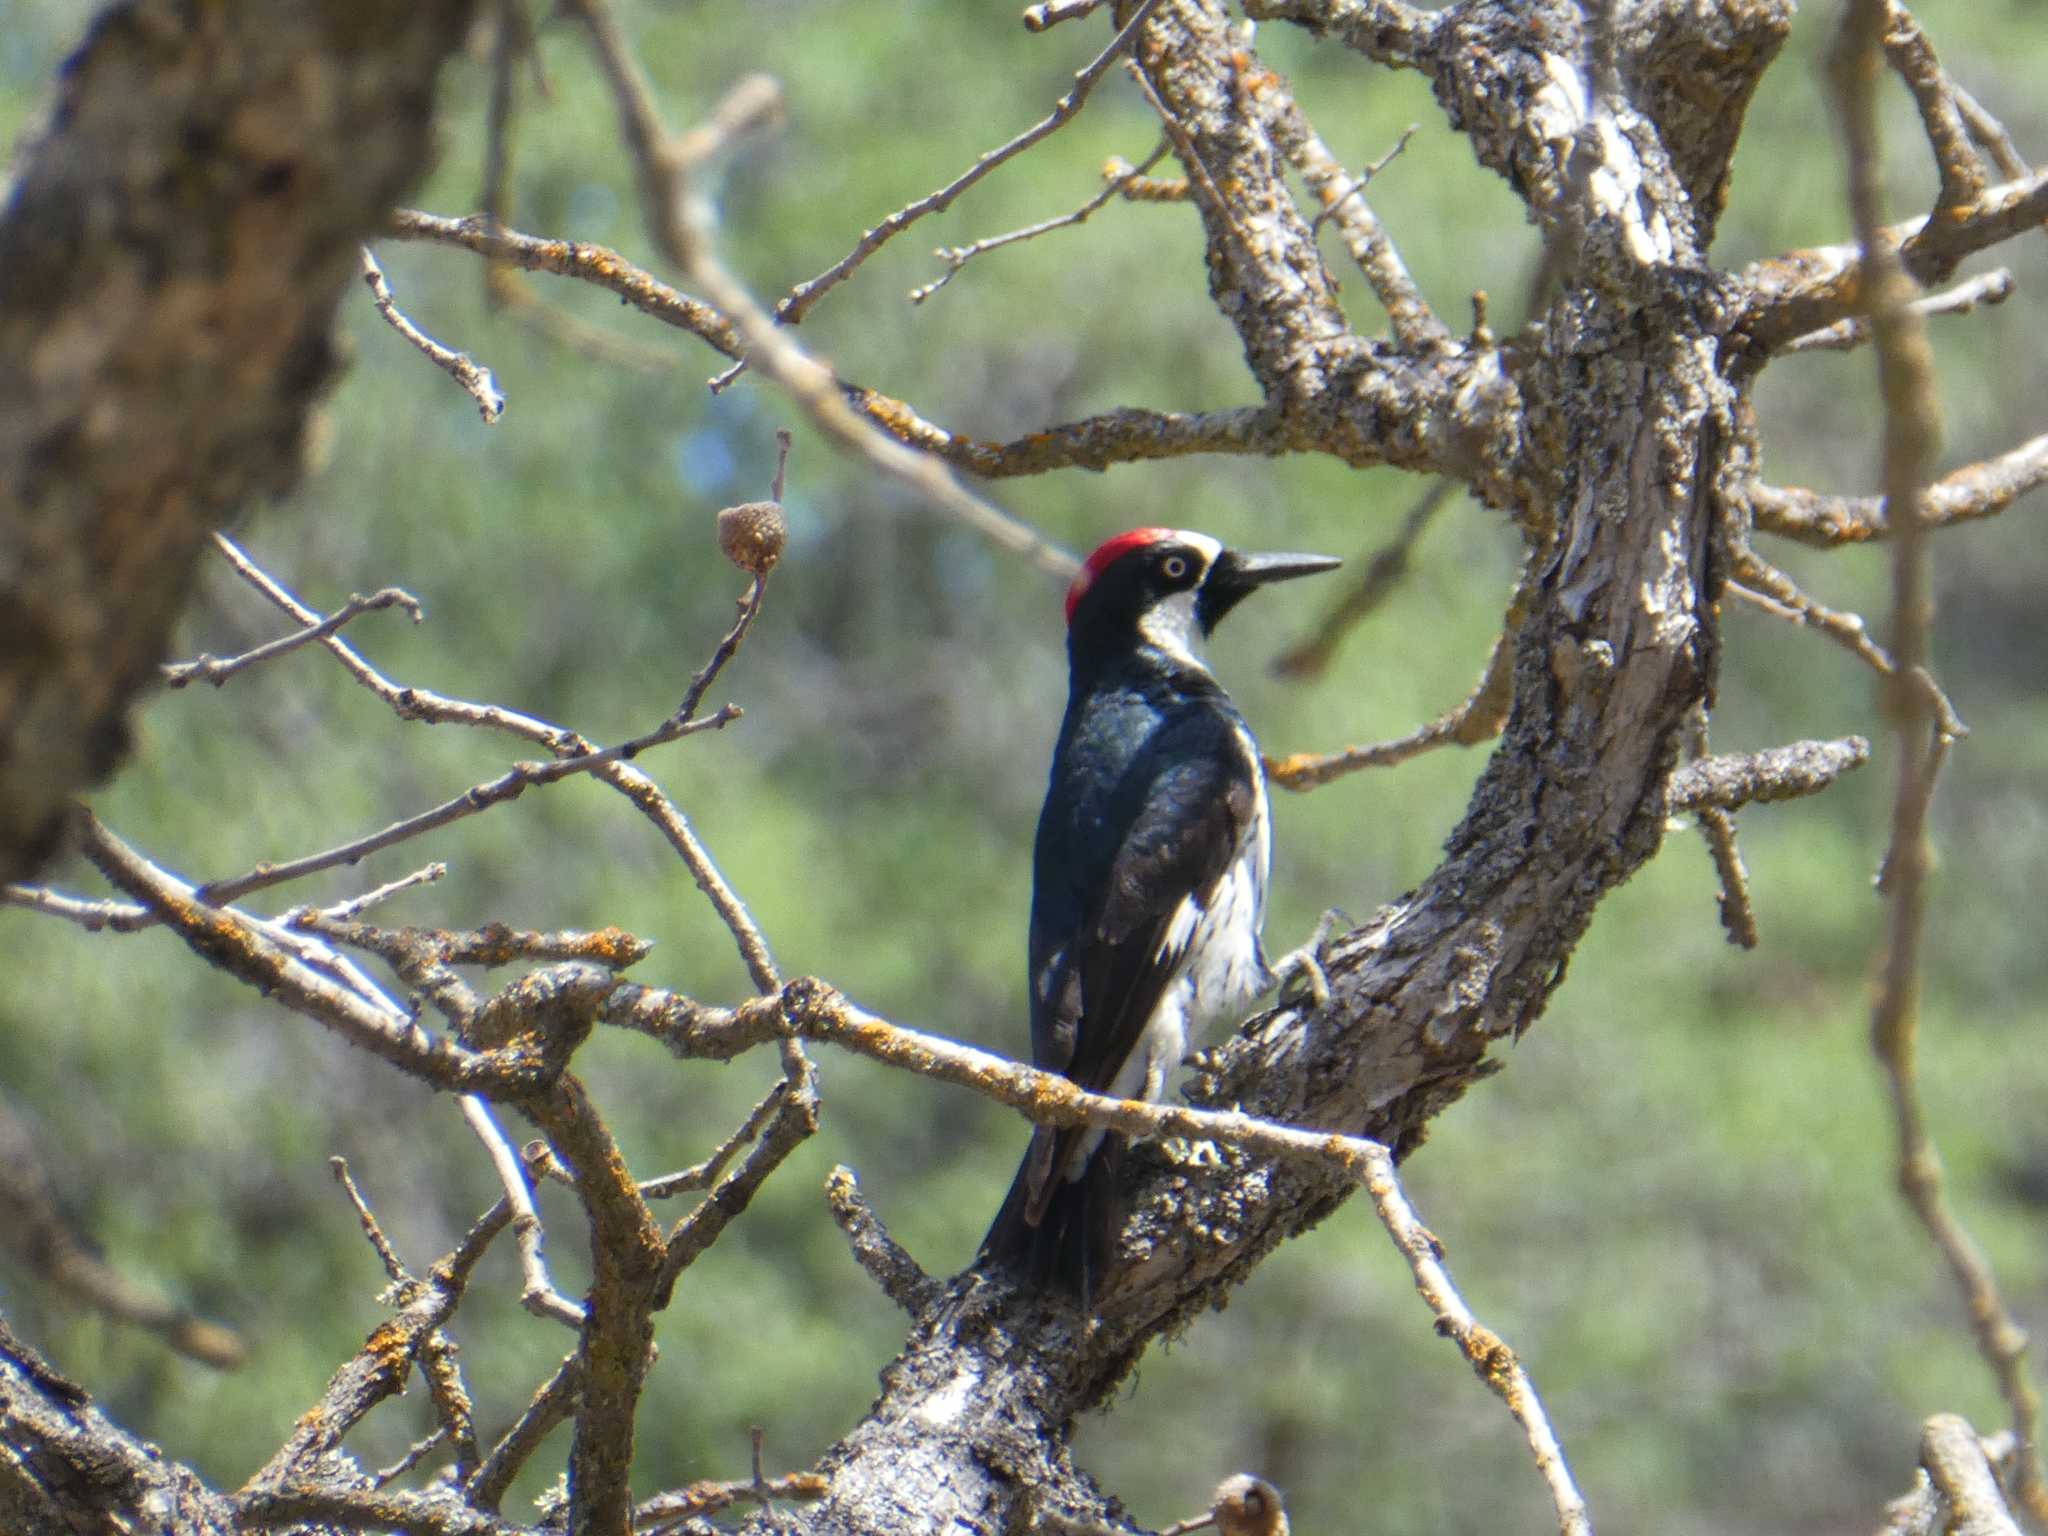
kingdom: Animalia
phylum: Chordata
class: Aves
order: Piciformes
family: Picidae
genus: Melanerpes
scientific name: Melanerpes formicivorus
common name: Acorn woodpecker
